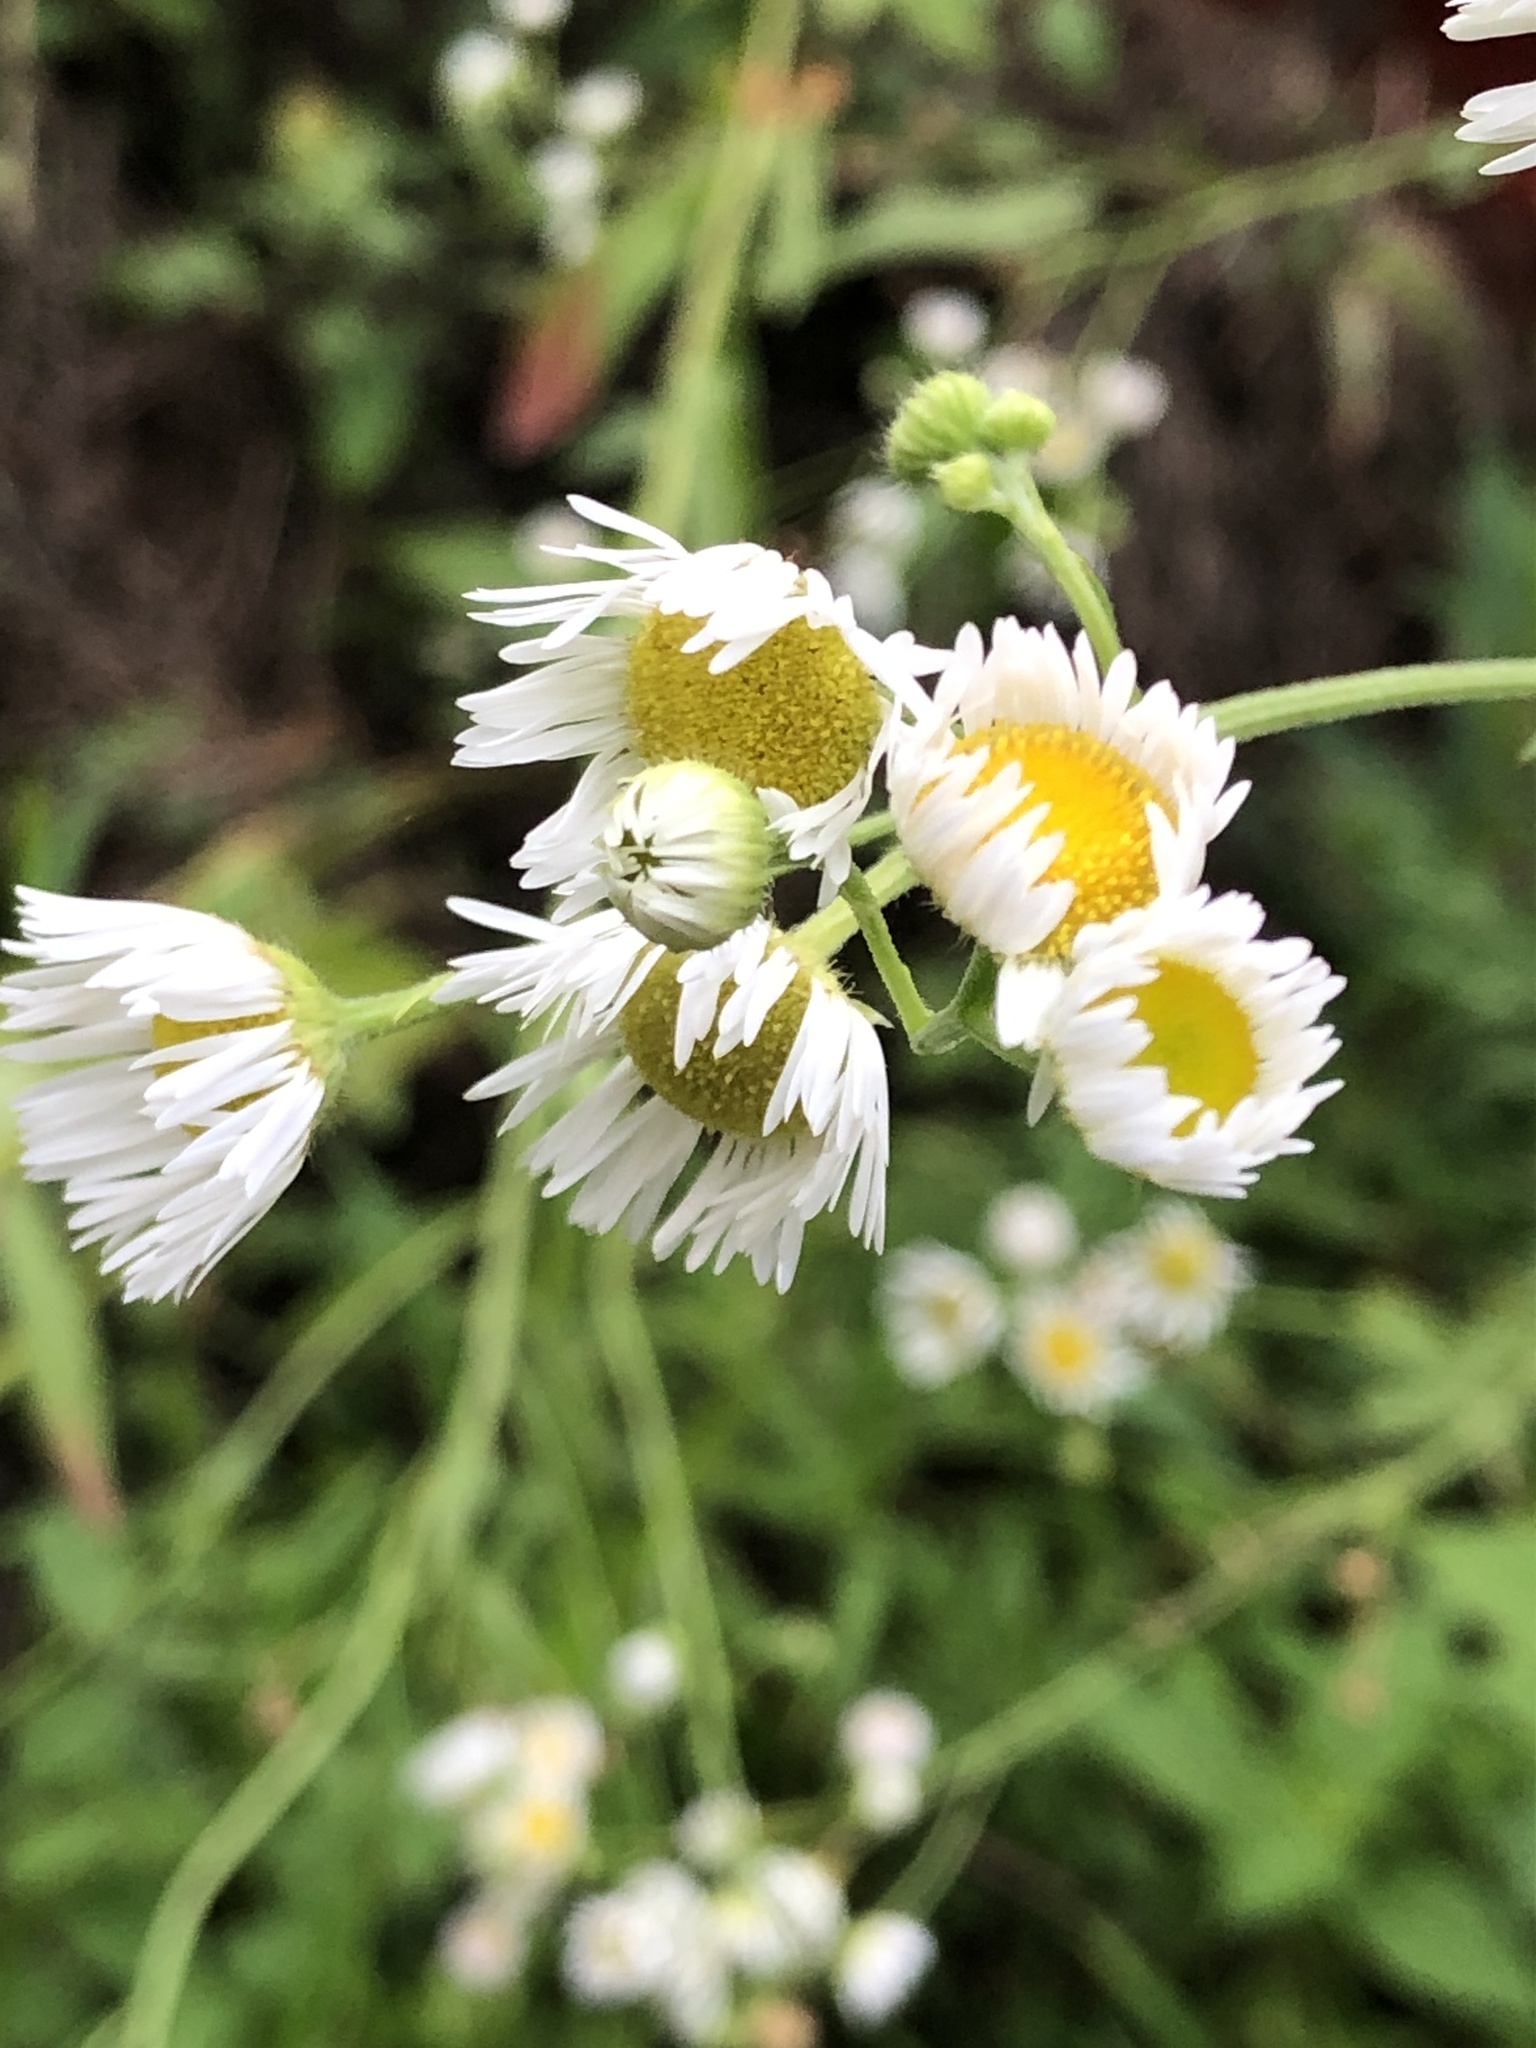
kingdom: Plantae
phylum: Tracheophyta
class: Magnoliopsida
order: Asterales
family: Asteraceae
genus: Erigeron
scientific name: Erigeron annuus
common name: Tall fleabane
